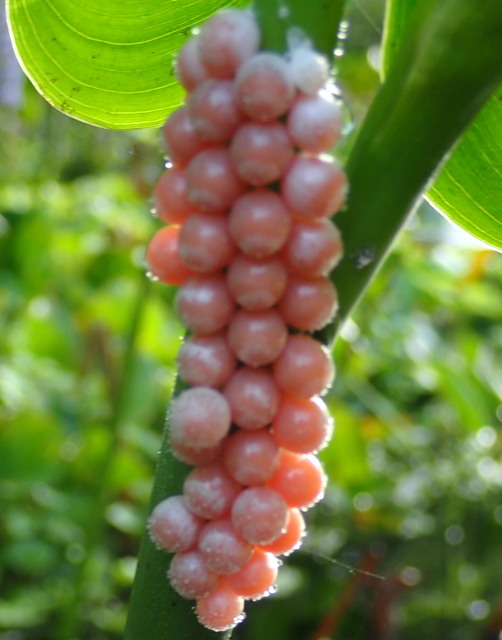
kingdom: Animalia
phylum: Mollusca
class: Gastropoda
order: Architaenioglossa
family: Ampullariidae
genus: Pomacea
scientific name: Pomacea paludosa
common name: Florida applesnail
